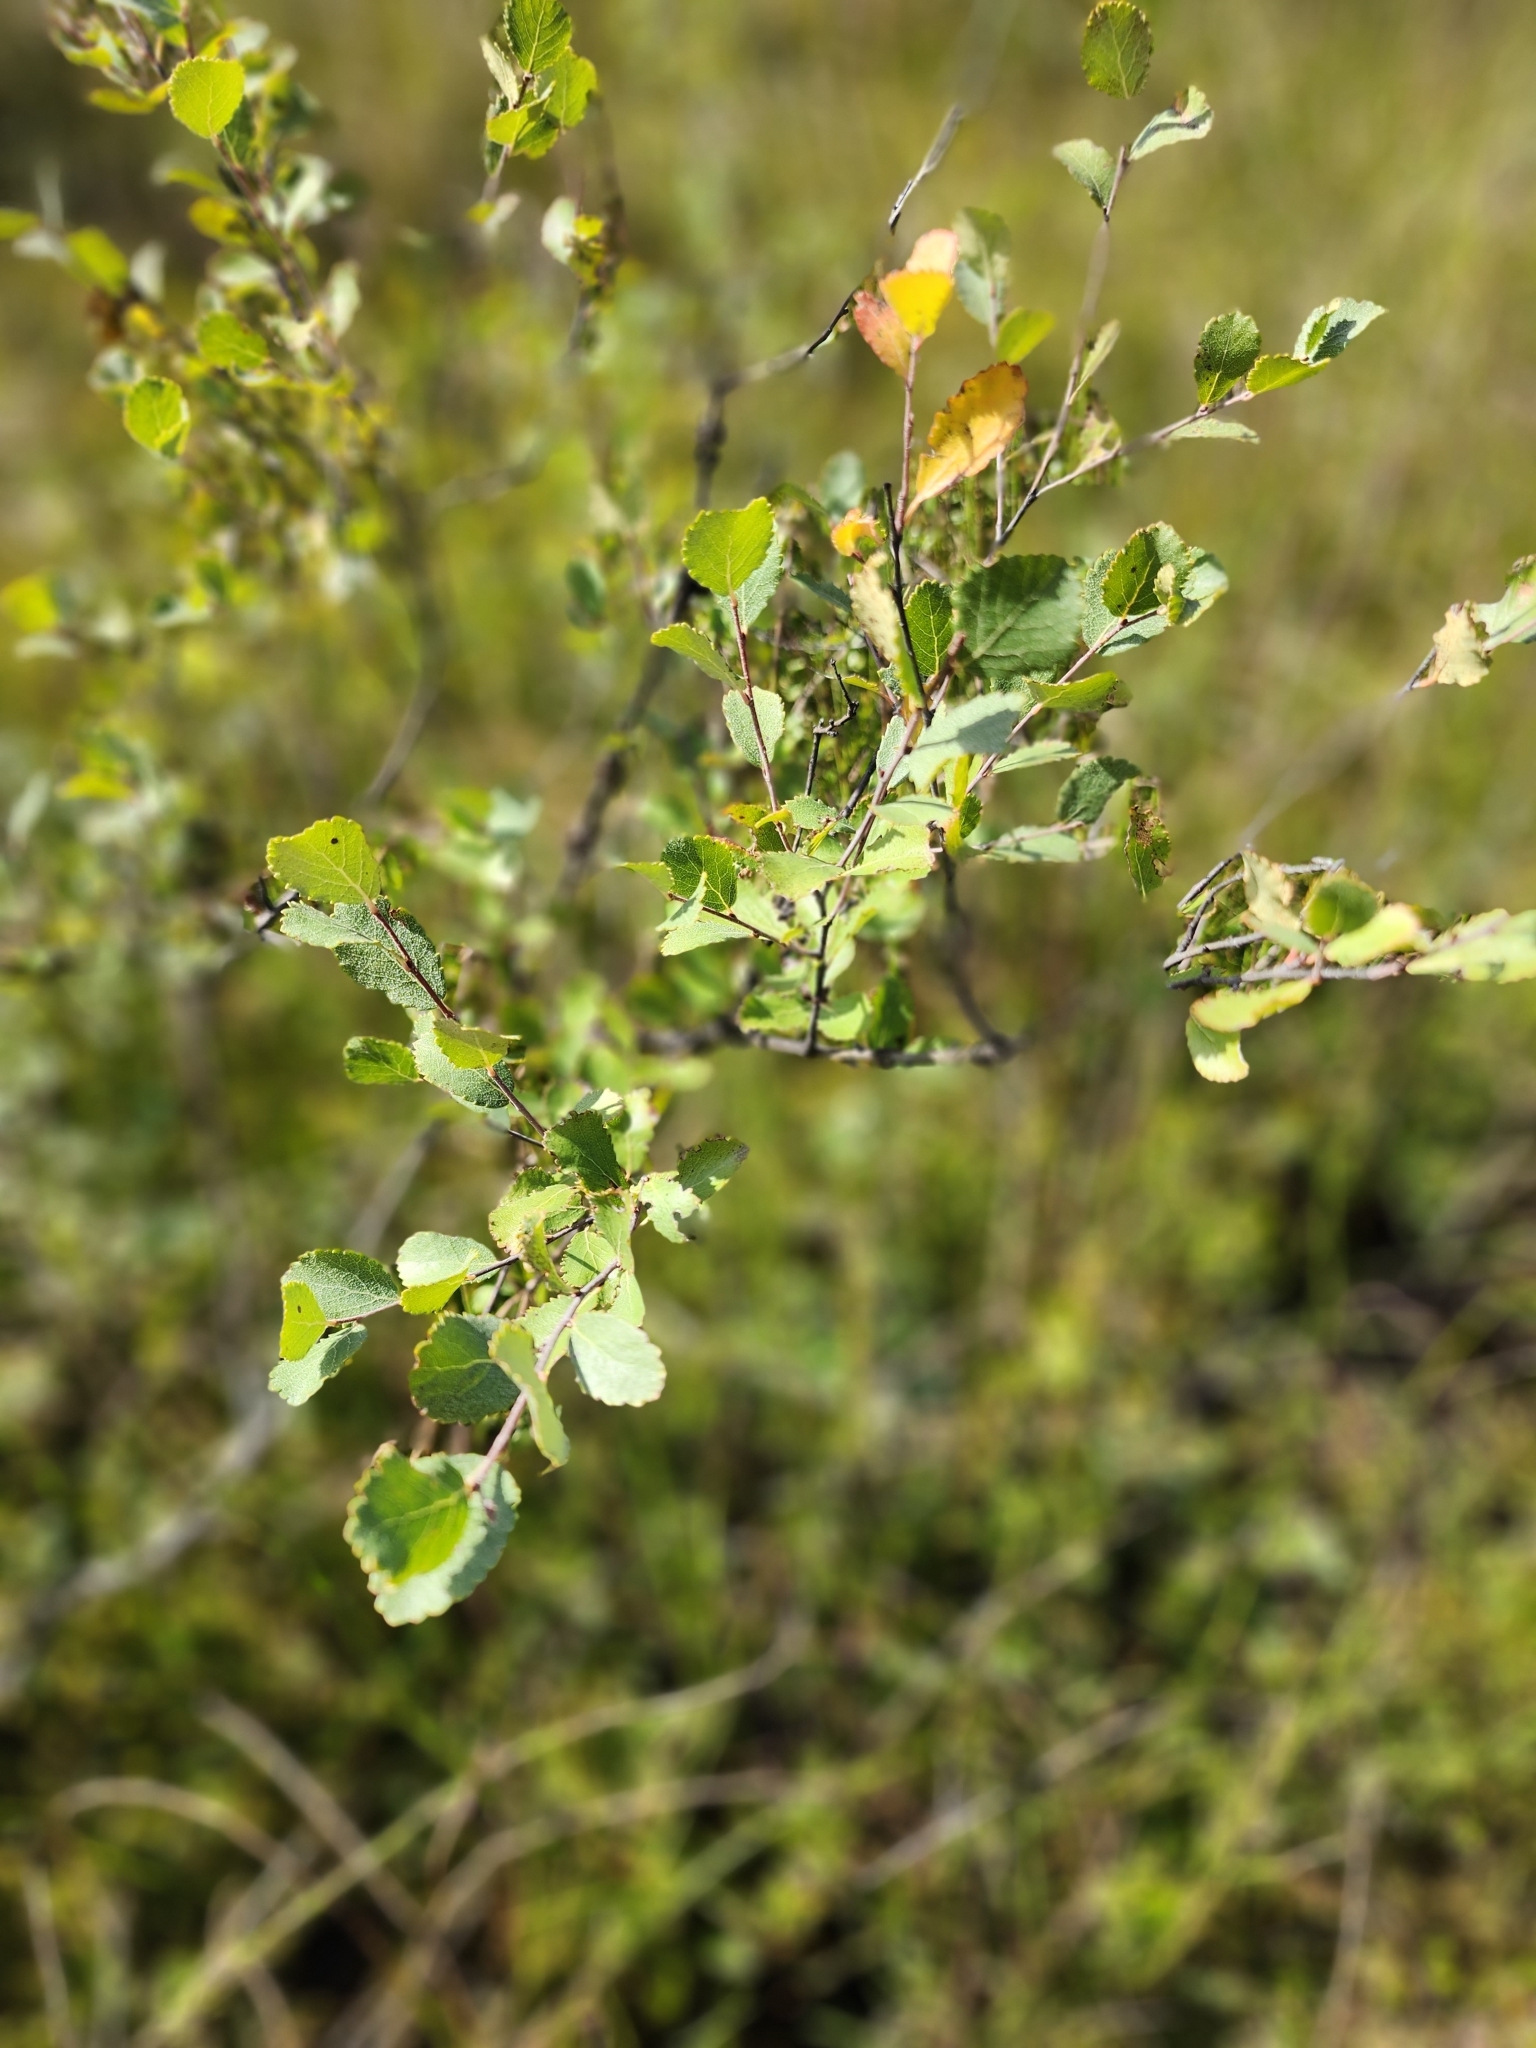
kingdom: Plantae
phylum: Tracheophyta
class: Magnoliopsida
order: Fagales
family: Betulaceae
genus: Betula
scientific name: Betula pumila
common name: Bog birch
